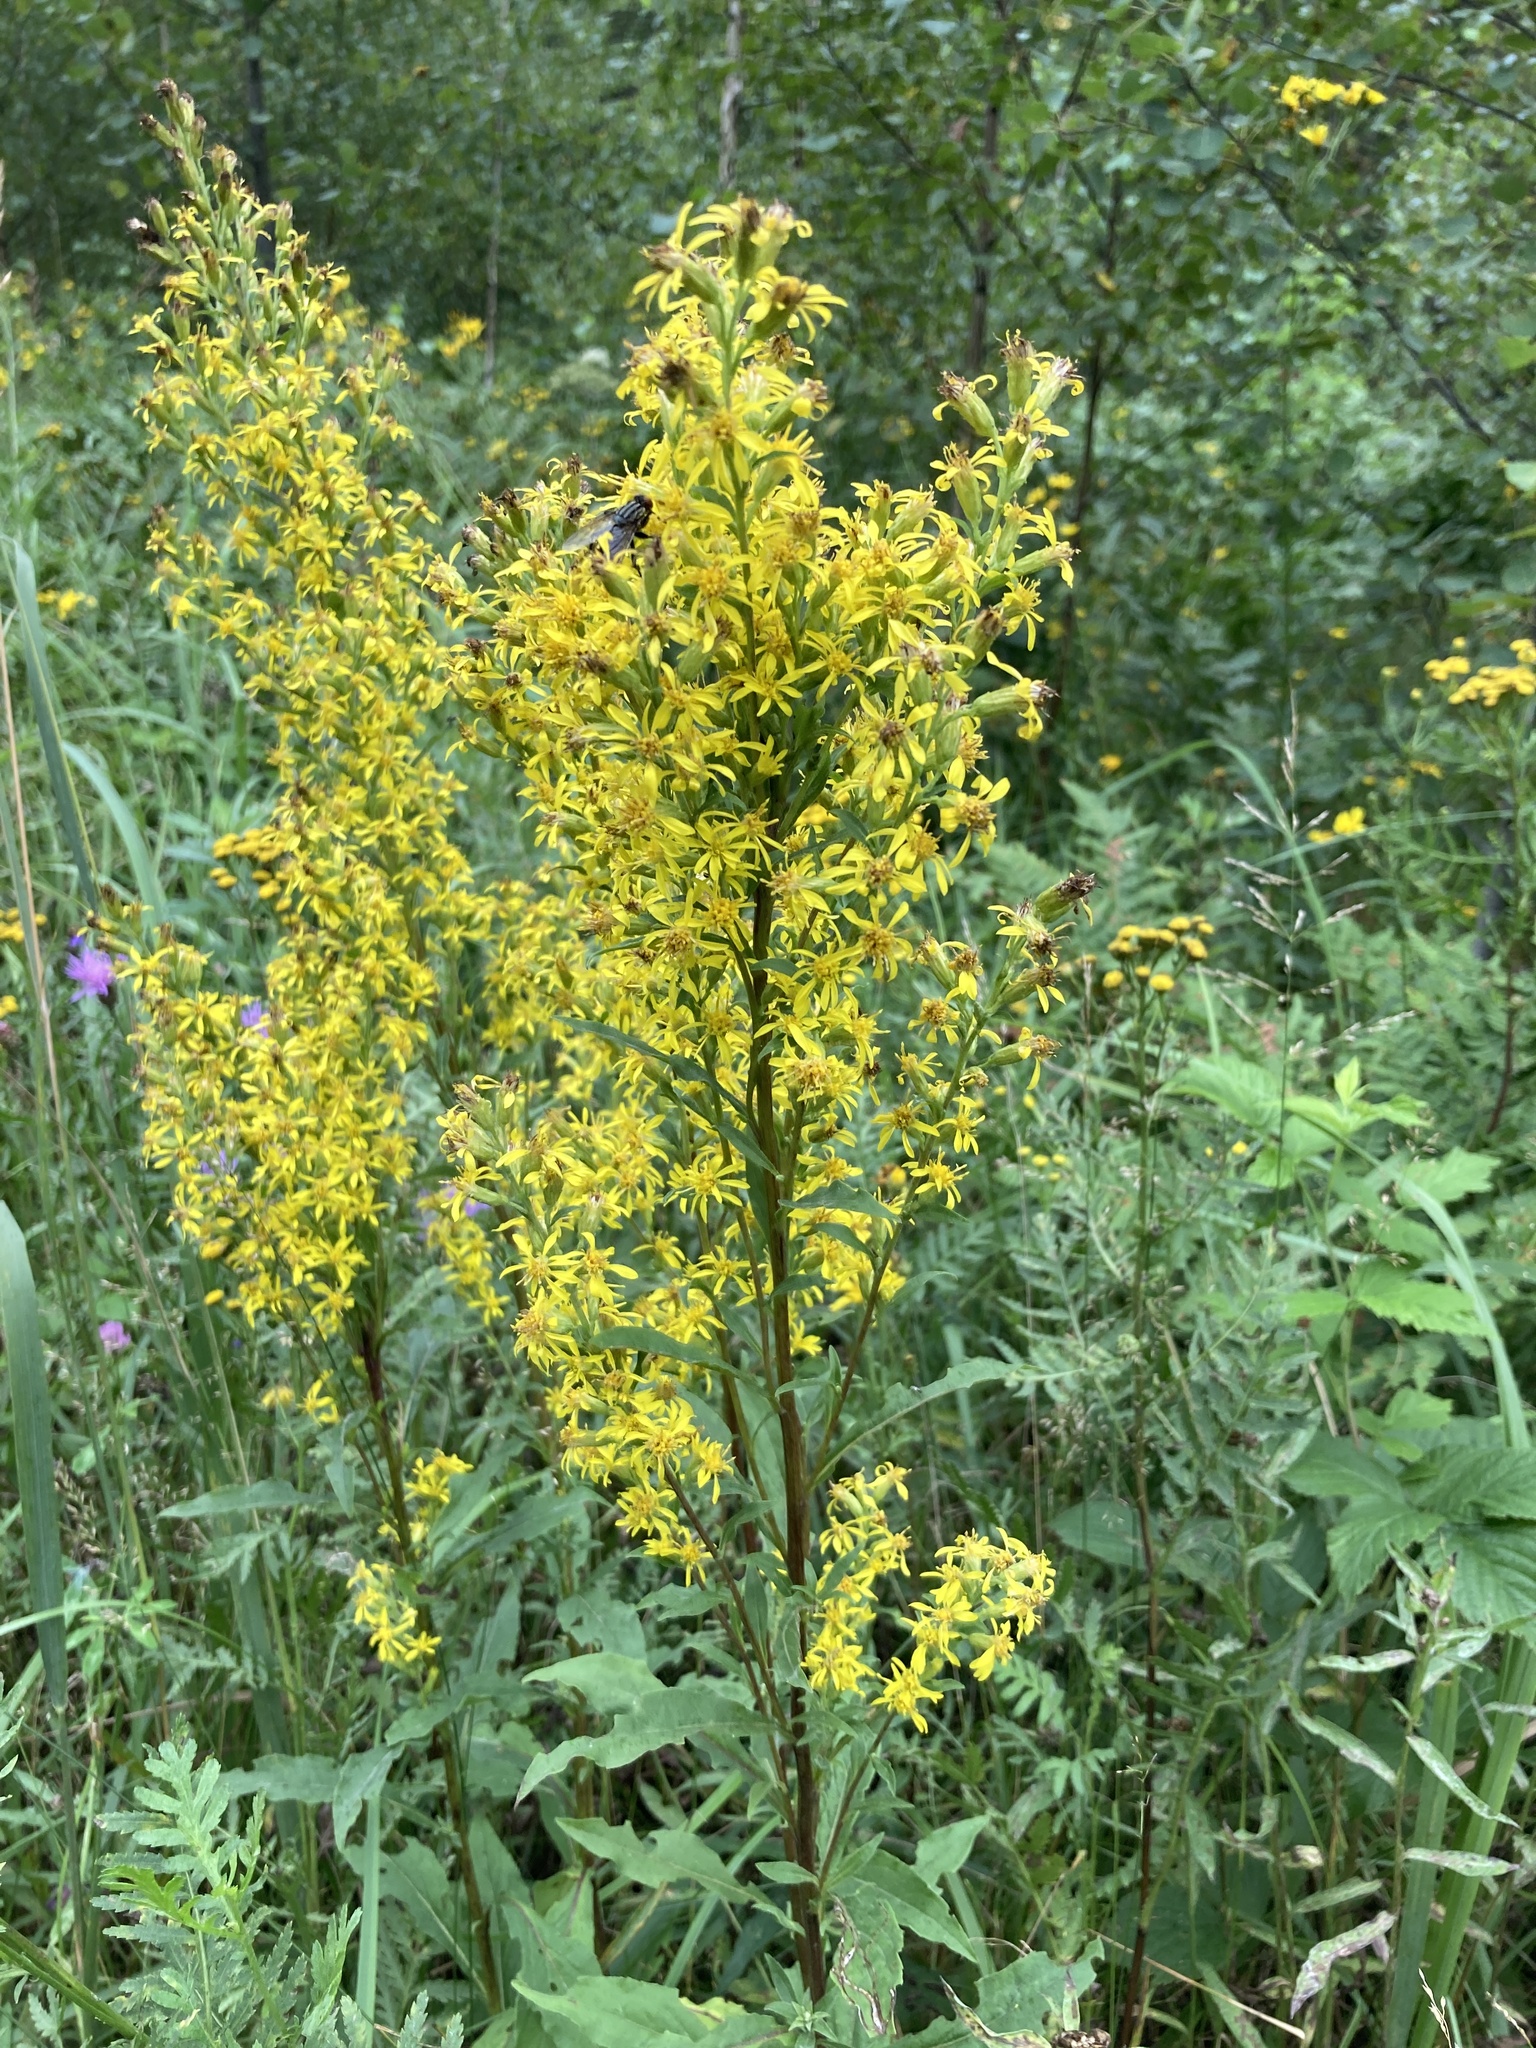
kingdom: Plantae
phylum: Tracheophyta
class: Magnoliopsida
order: Asterales
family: Asteraceae
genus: Solidago
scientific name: Solidago virgaurea
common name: Goldenrod
